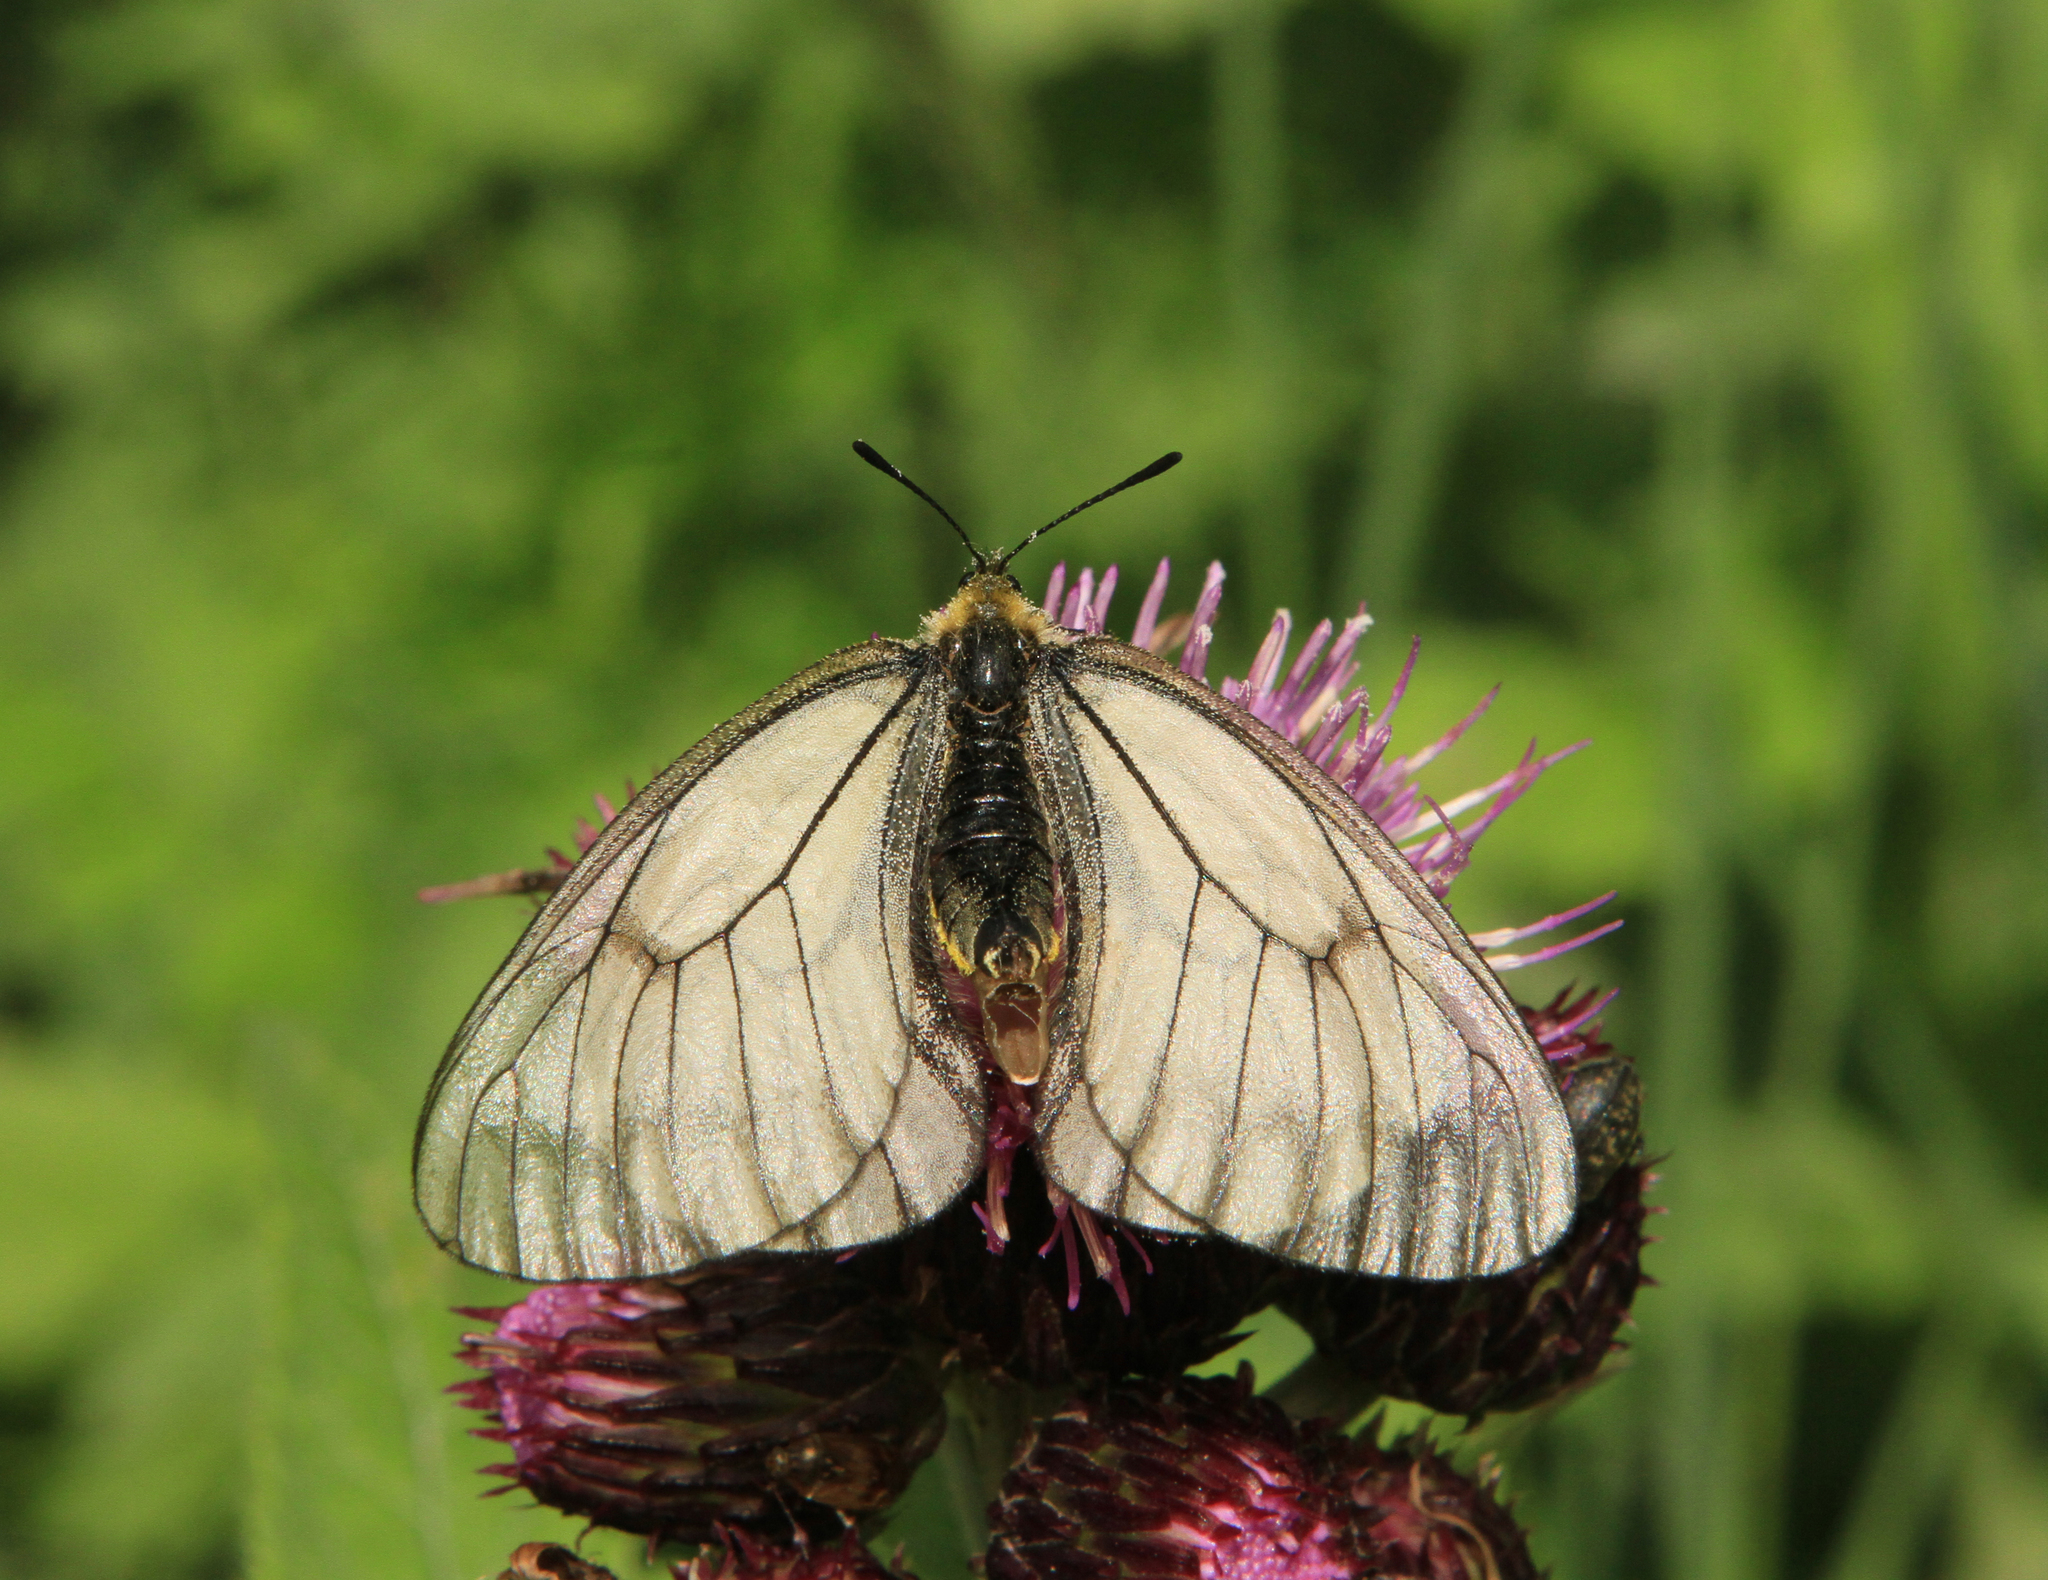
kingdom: Animalia
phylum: Arthropoda
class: Insecta
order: Lepidoptera
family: Papilionidae
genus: Parnassius
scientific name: Parnassius stubbendorfii
